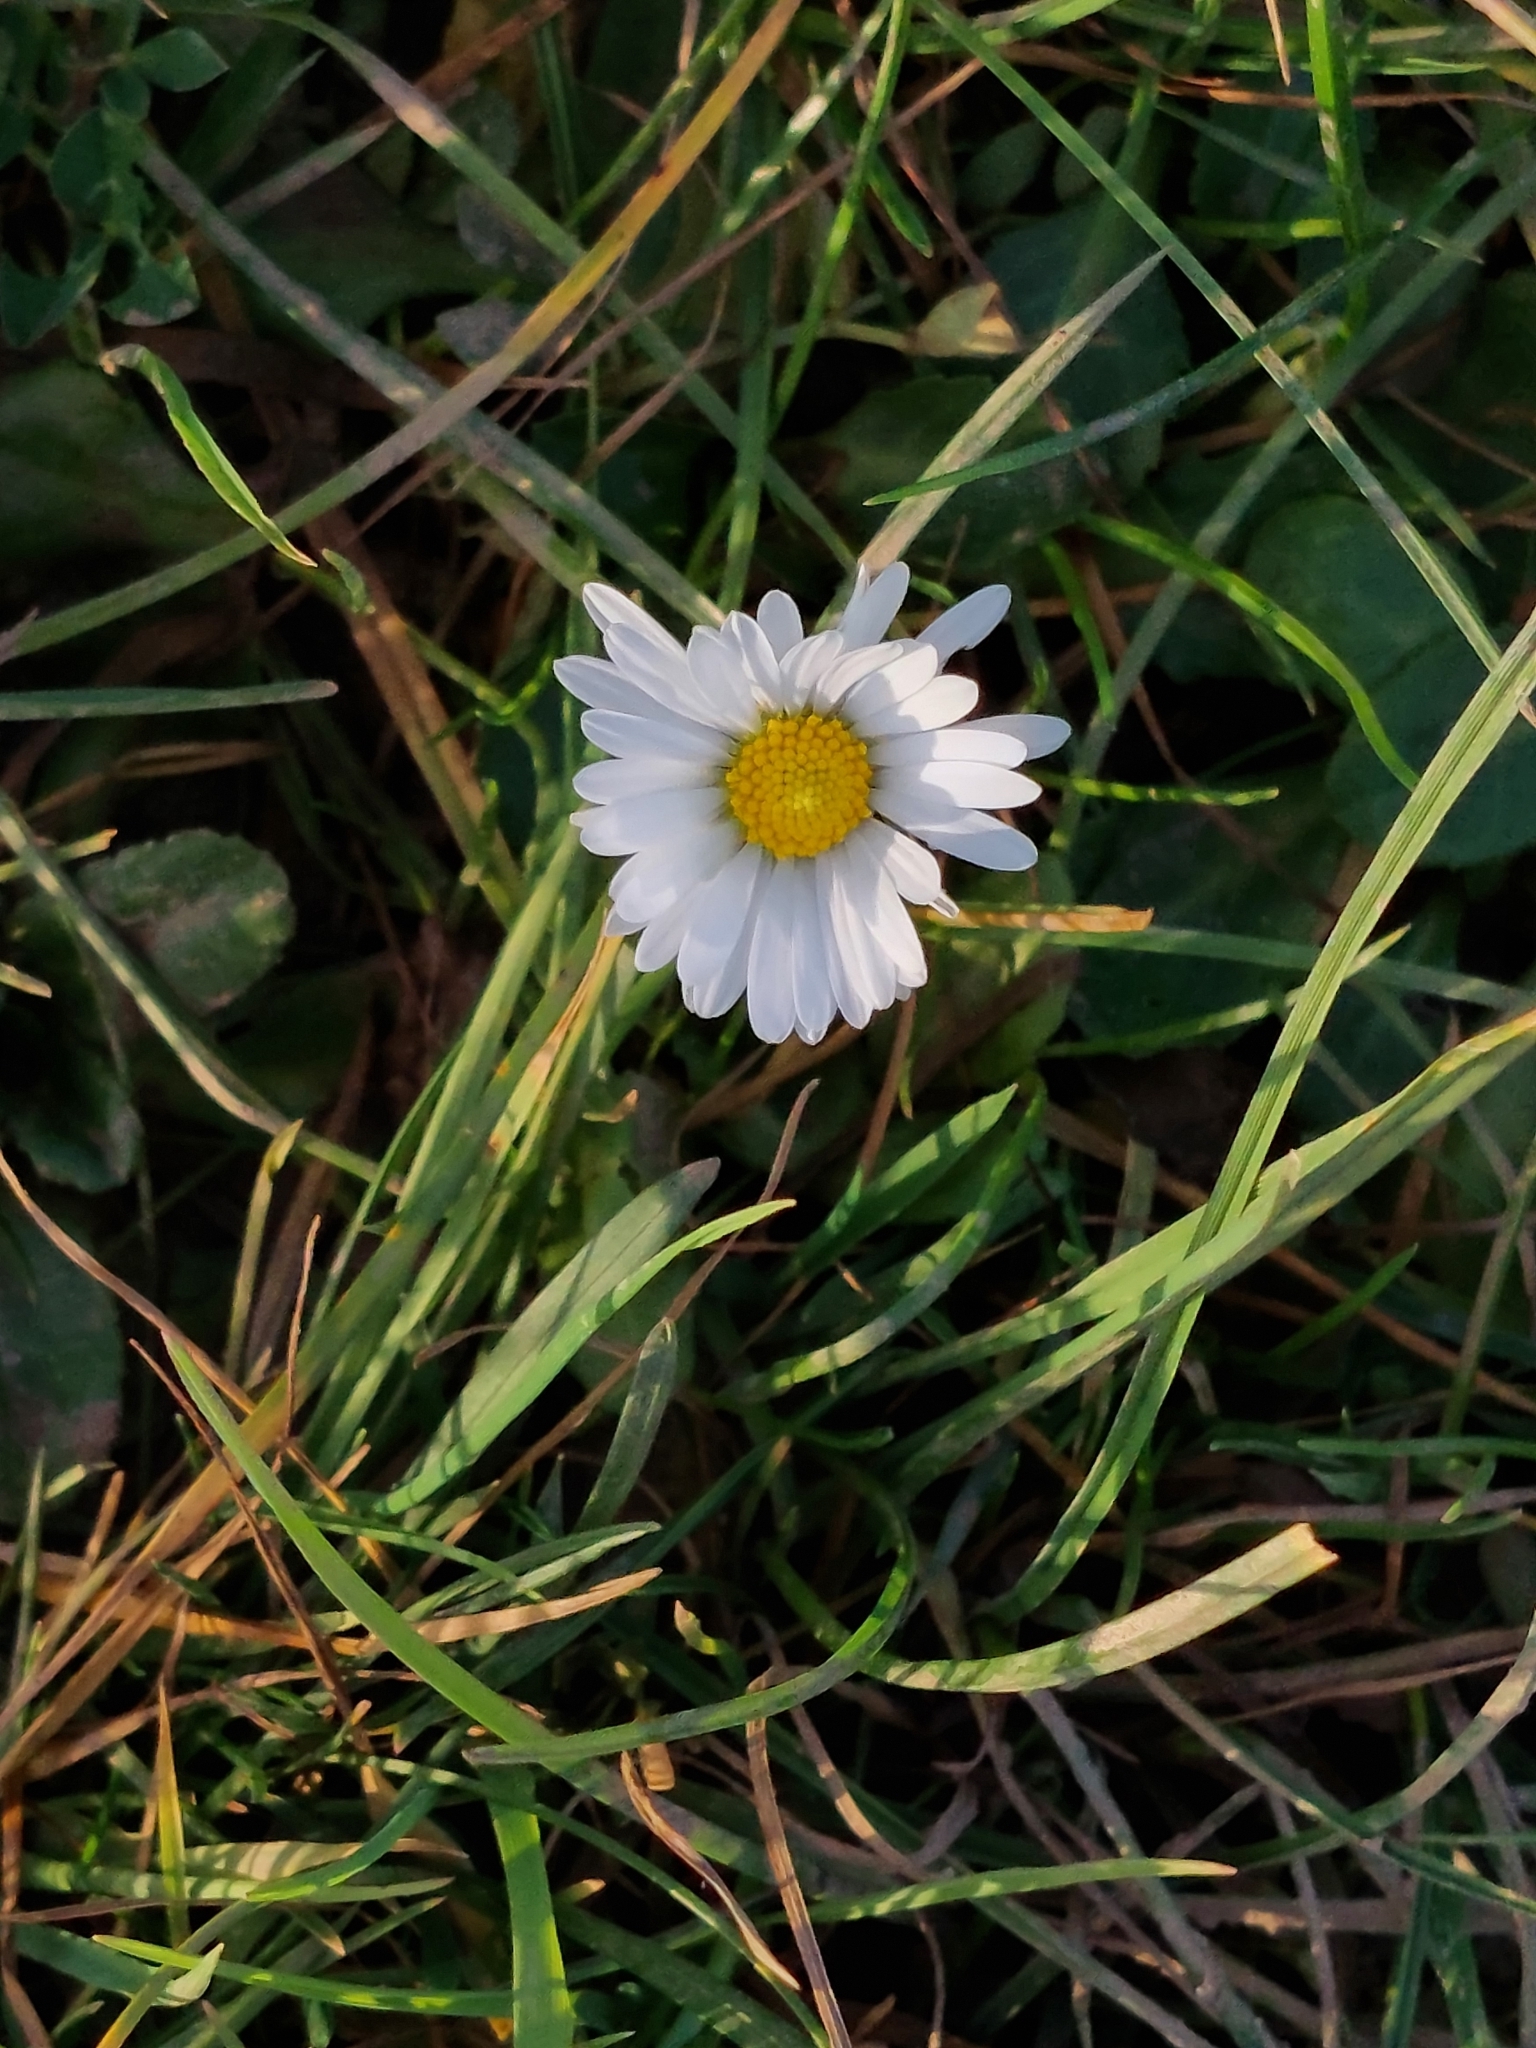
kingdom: Plantae
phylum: Tracheophyta
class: Magnoliopsida
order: Asterales
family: Asteraceae
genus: Bellis
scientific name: Bellis perennis
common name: Lawndaisy
